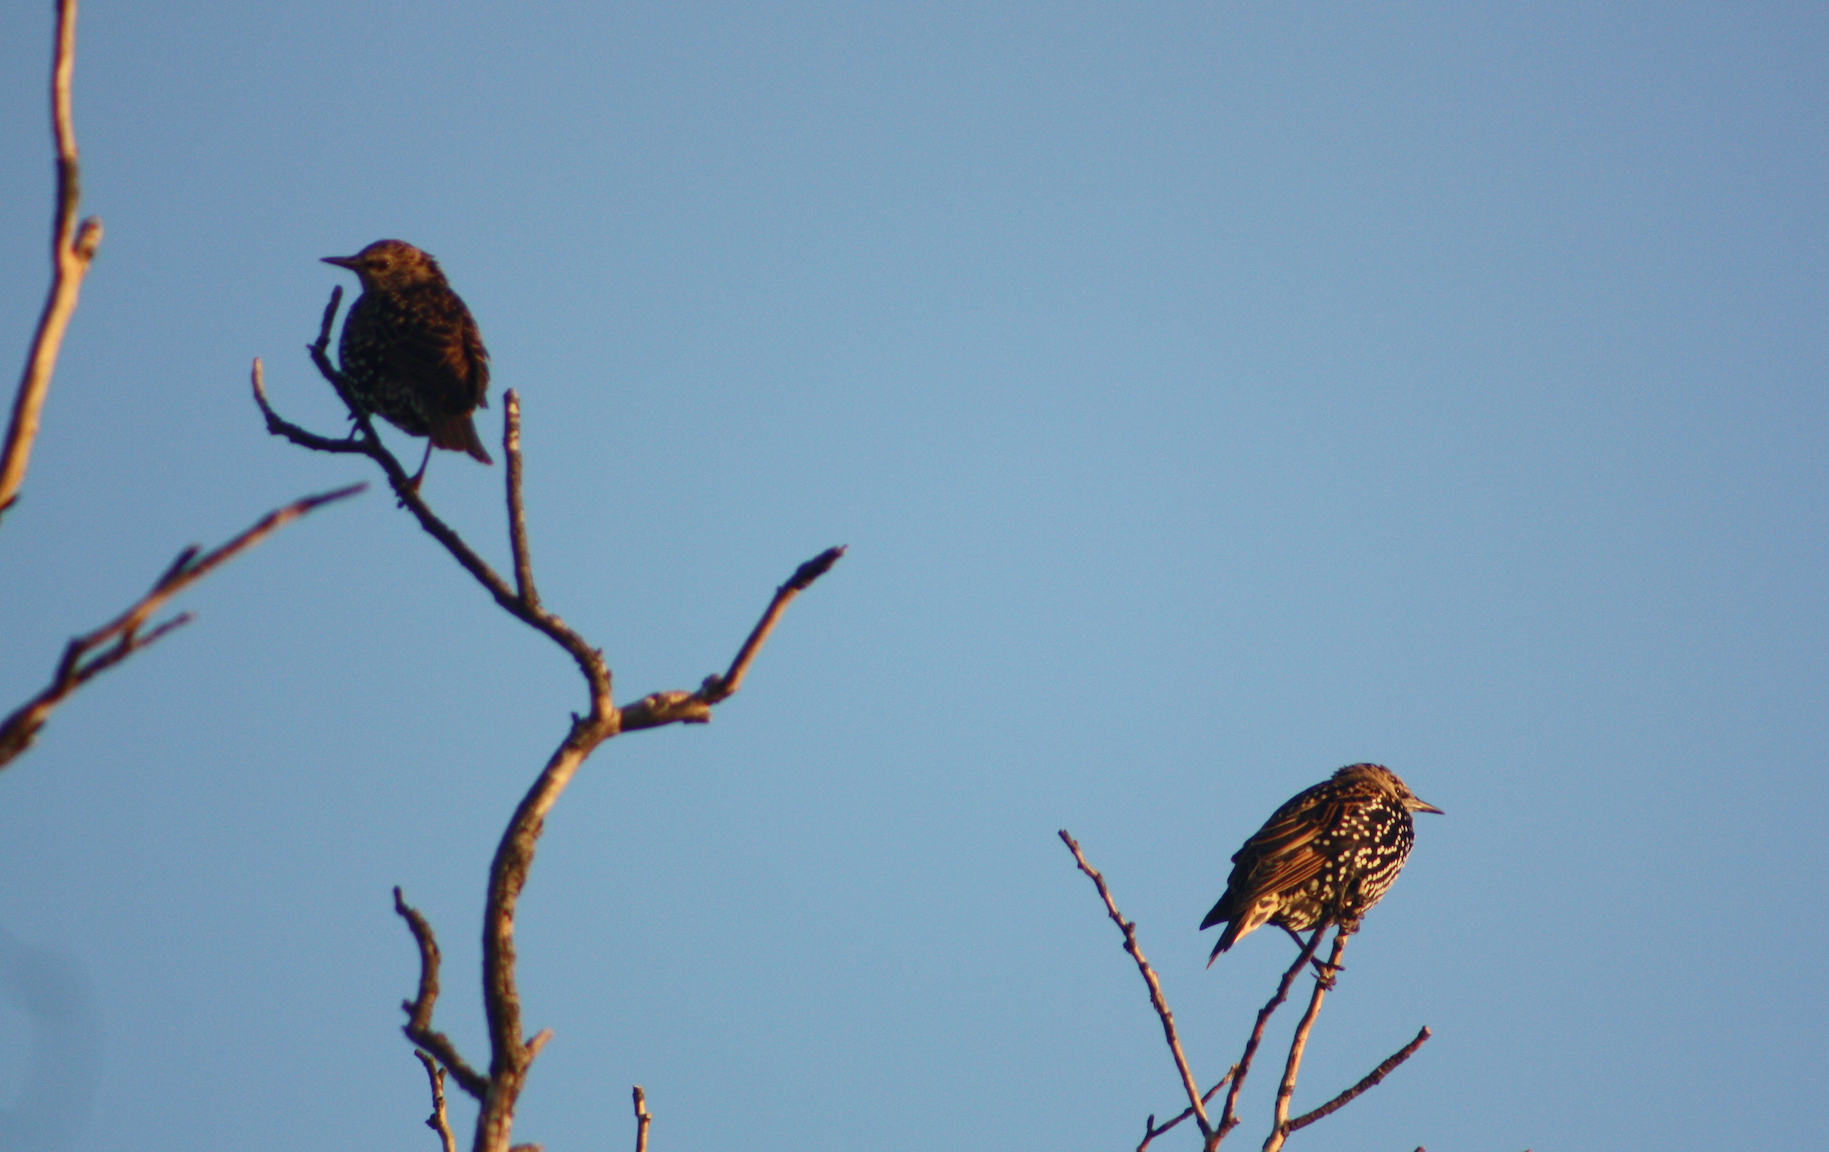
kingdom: Animalia
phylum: Chordata
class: Aves
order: Passeriformes
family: Sturnidae
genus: Sturnus
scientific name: Sturnus vulgaris
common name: Common starling
